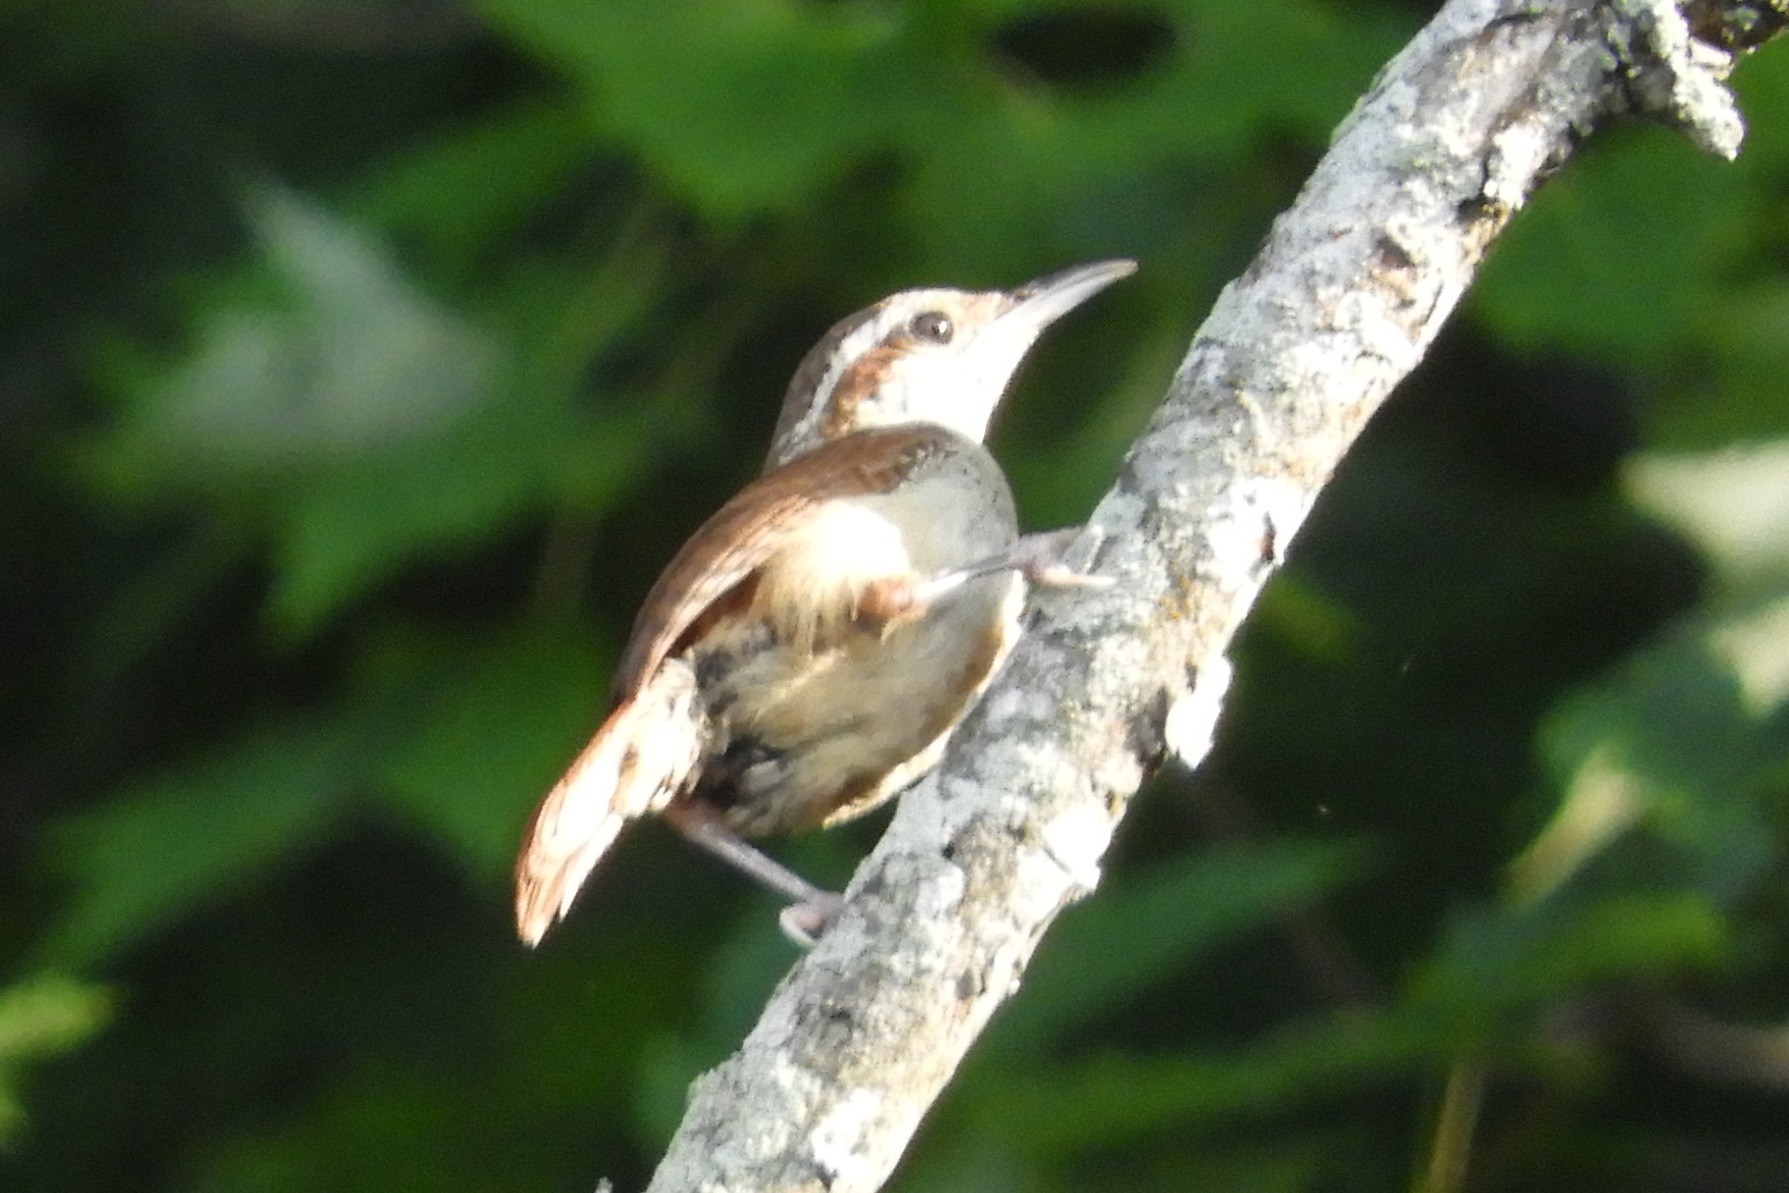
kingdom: Animalia
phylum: Chordata
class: Aves
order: Passeriformes
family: Troglodytidae
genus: Thryothorus
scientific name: Thryothorus ludovicianus
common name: Carolina wren
